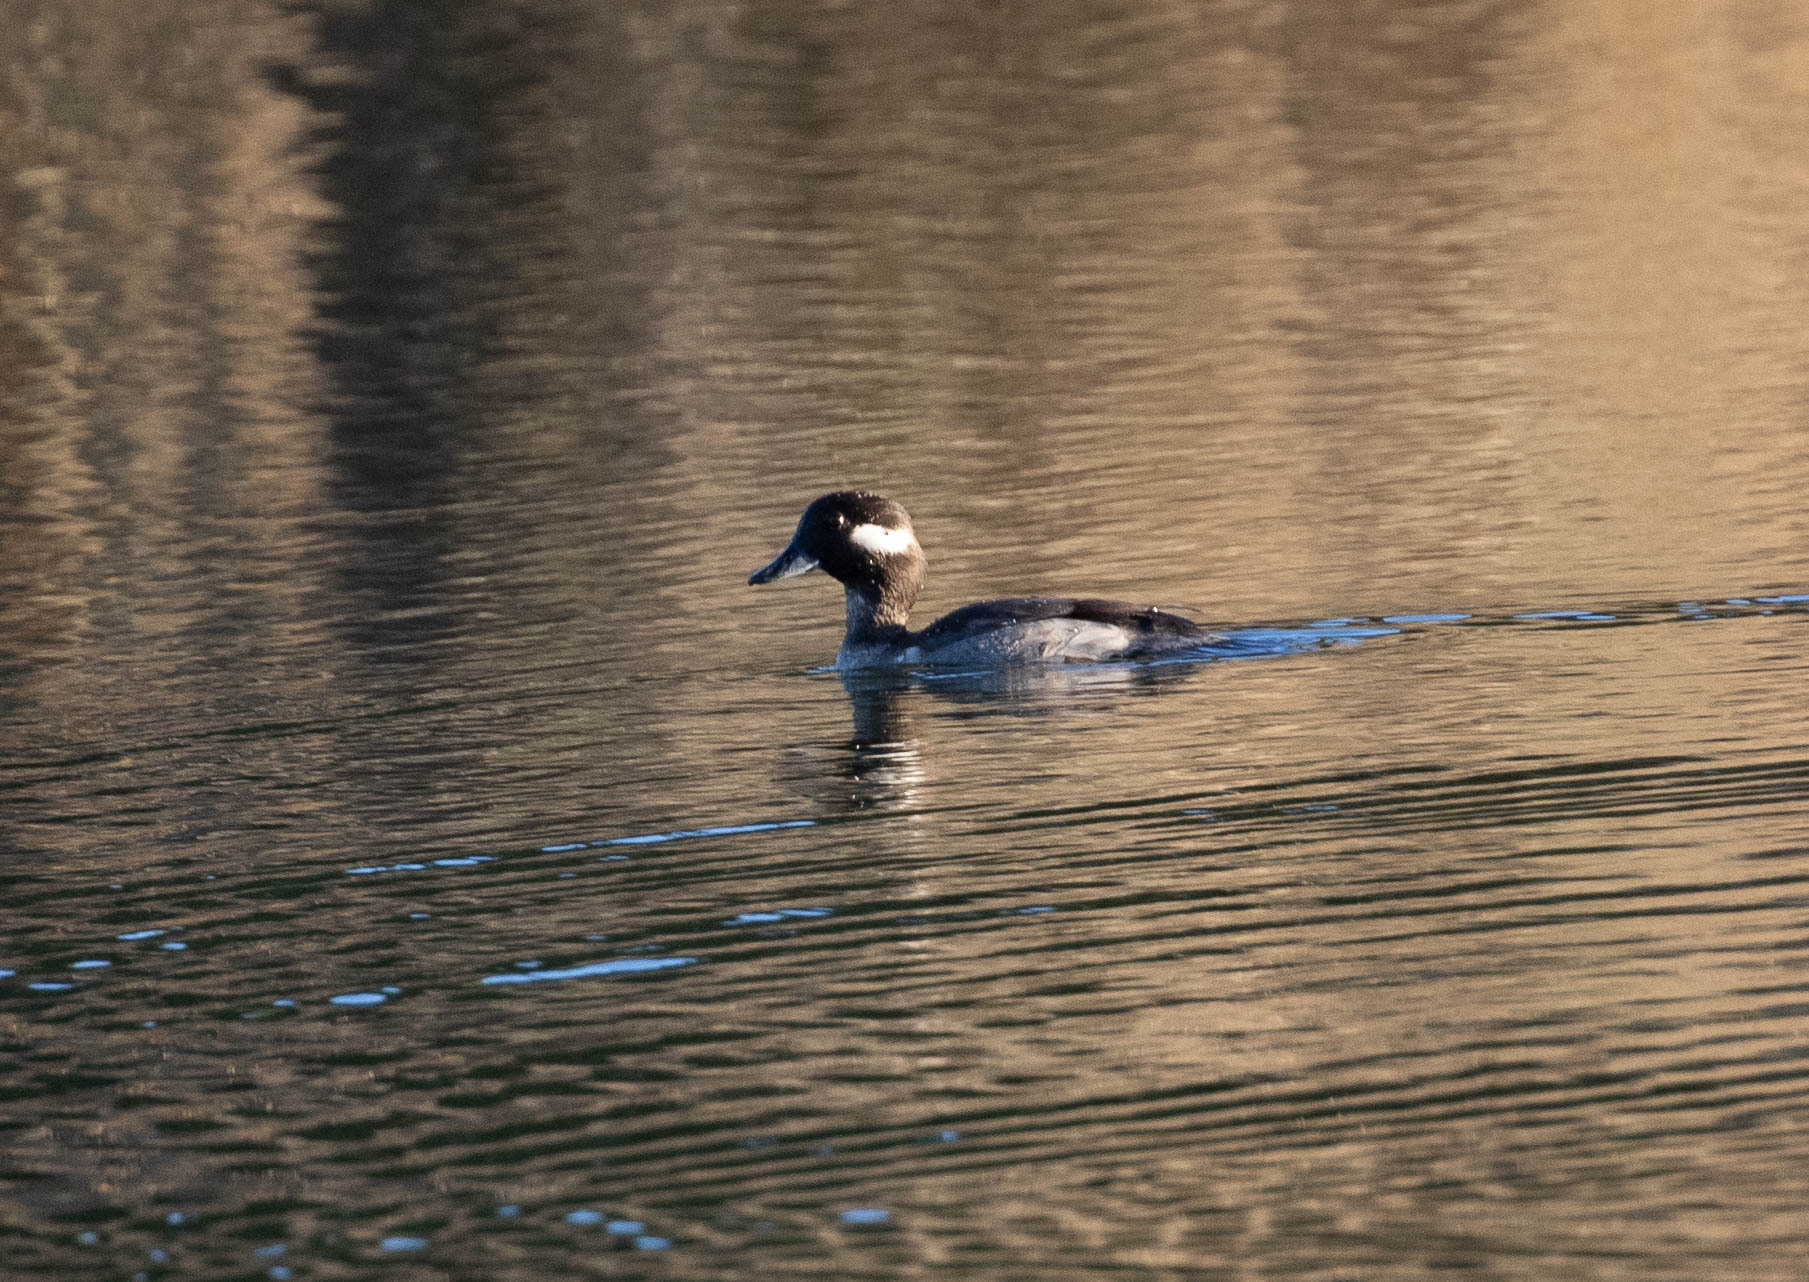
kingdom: Animalia
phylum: Chordata
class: Aves
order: Anseriformes
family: Anatidae
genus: Bucephala
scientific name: Bucephala albeola
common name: Bufflehead
